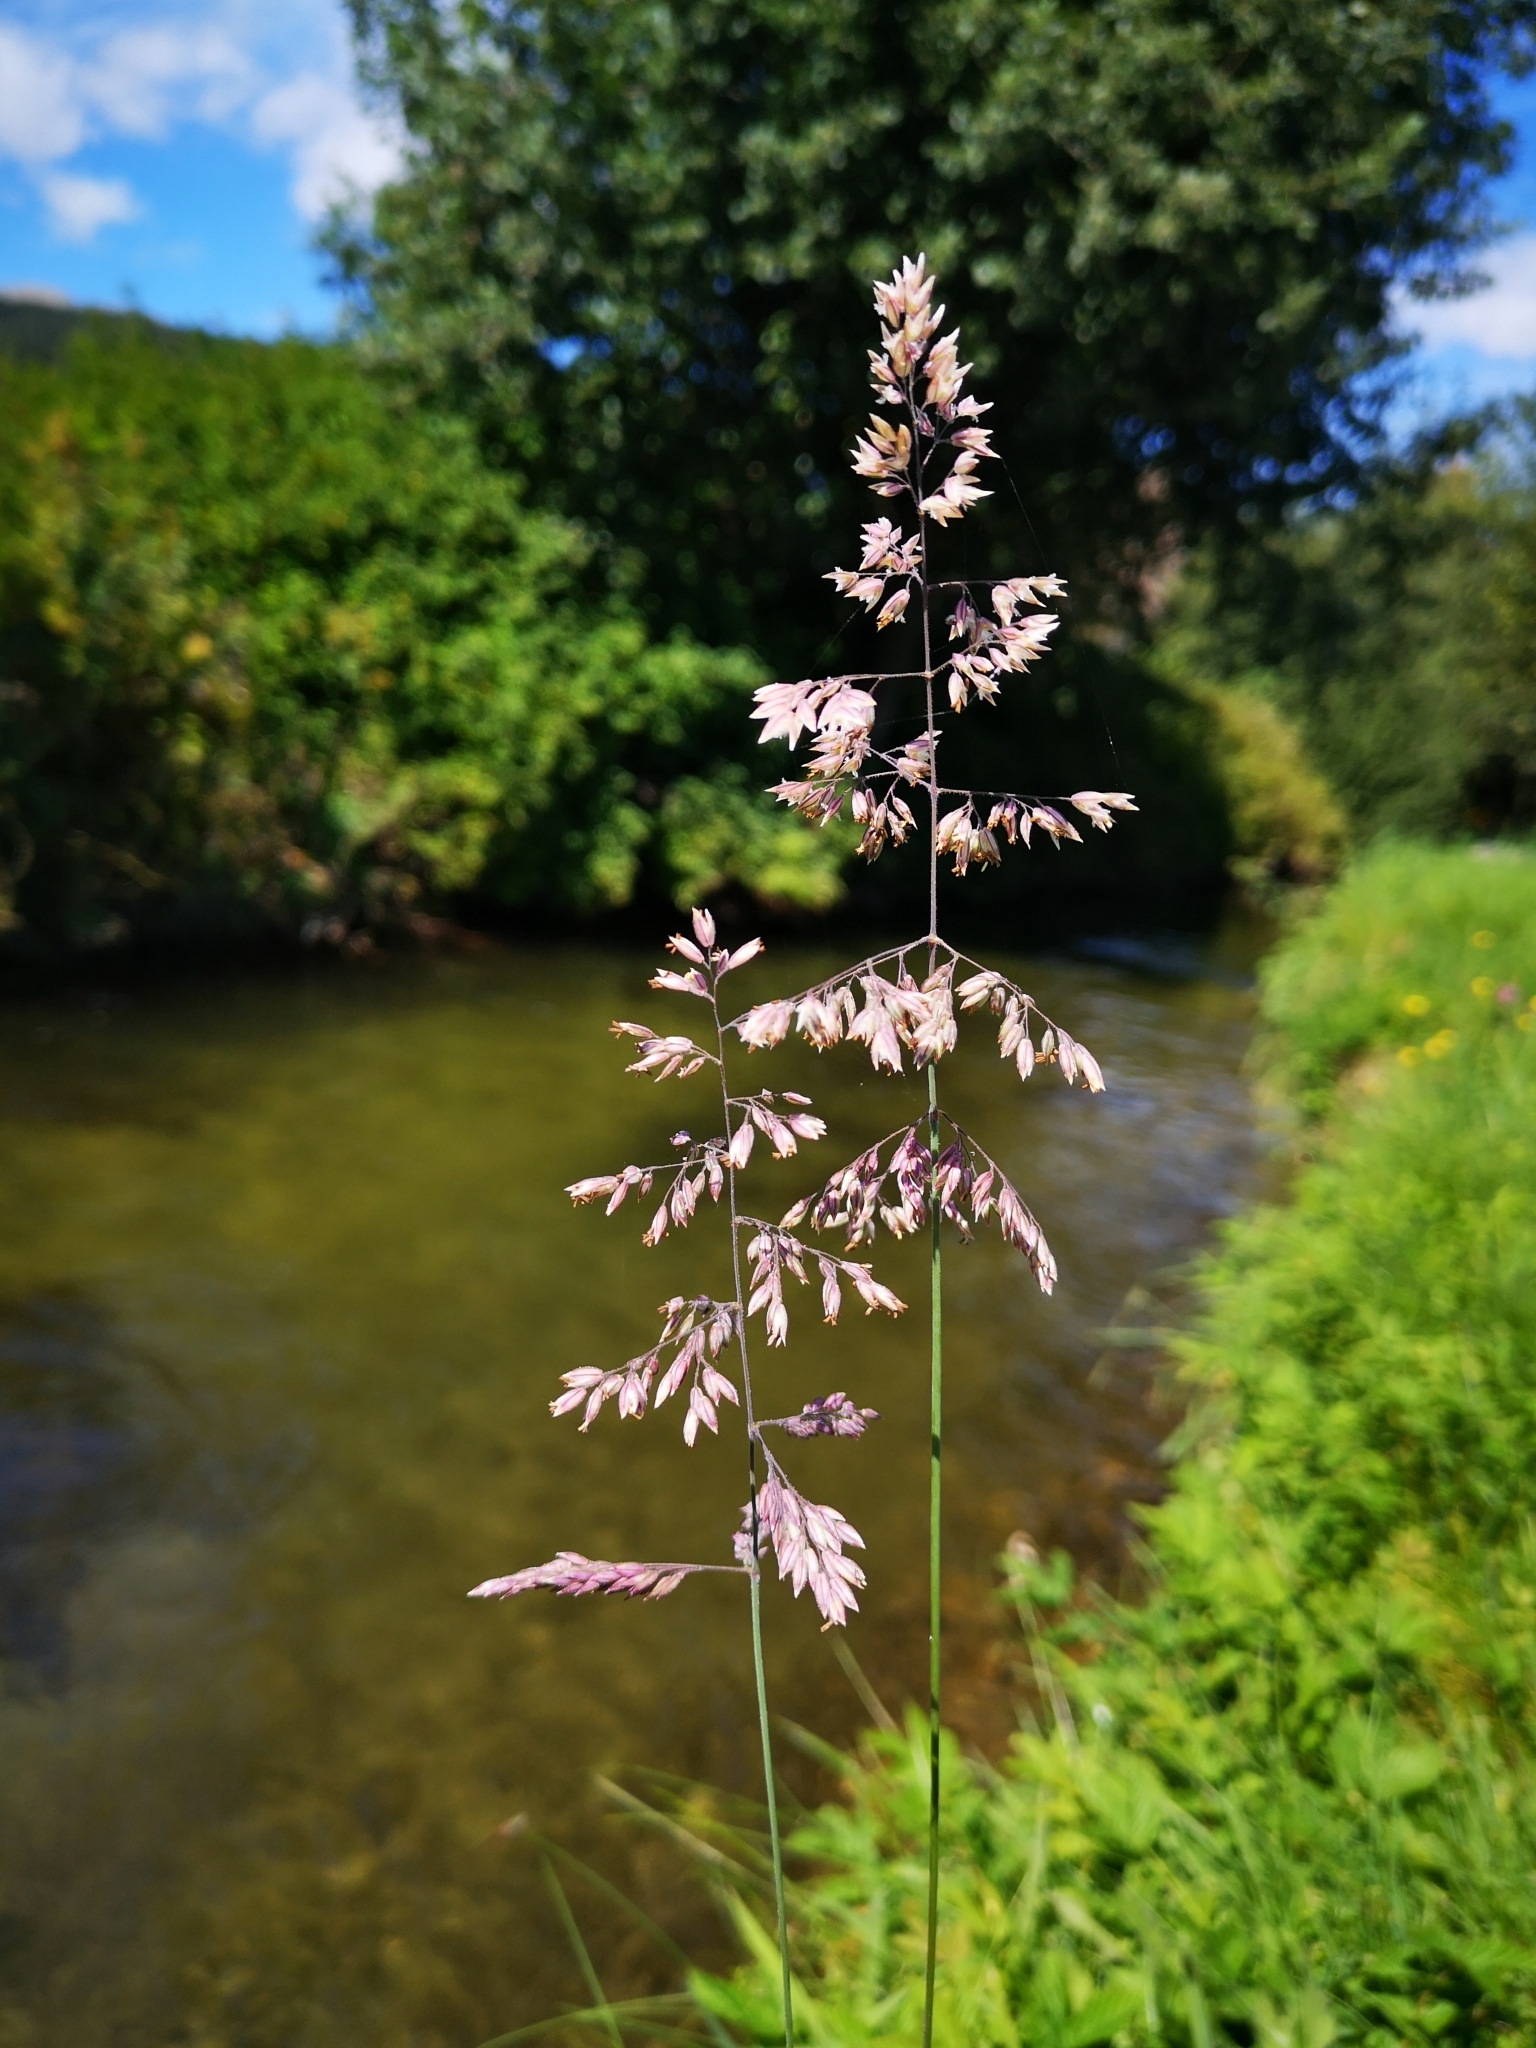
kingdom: Plantae
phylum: Tracheophyta
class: Liliopsida
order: Poales
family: Poaceae
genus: Holcus
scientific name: Holcus lanatus
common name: Yorkshire-fog
